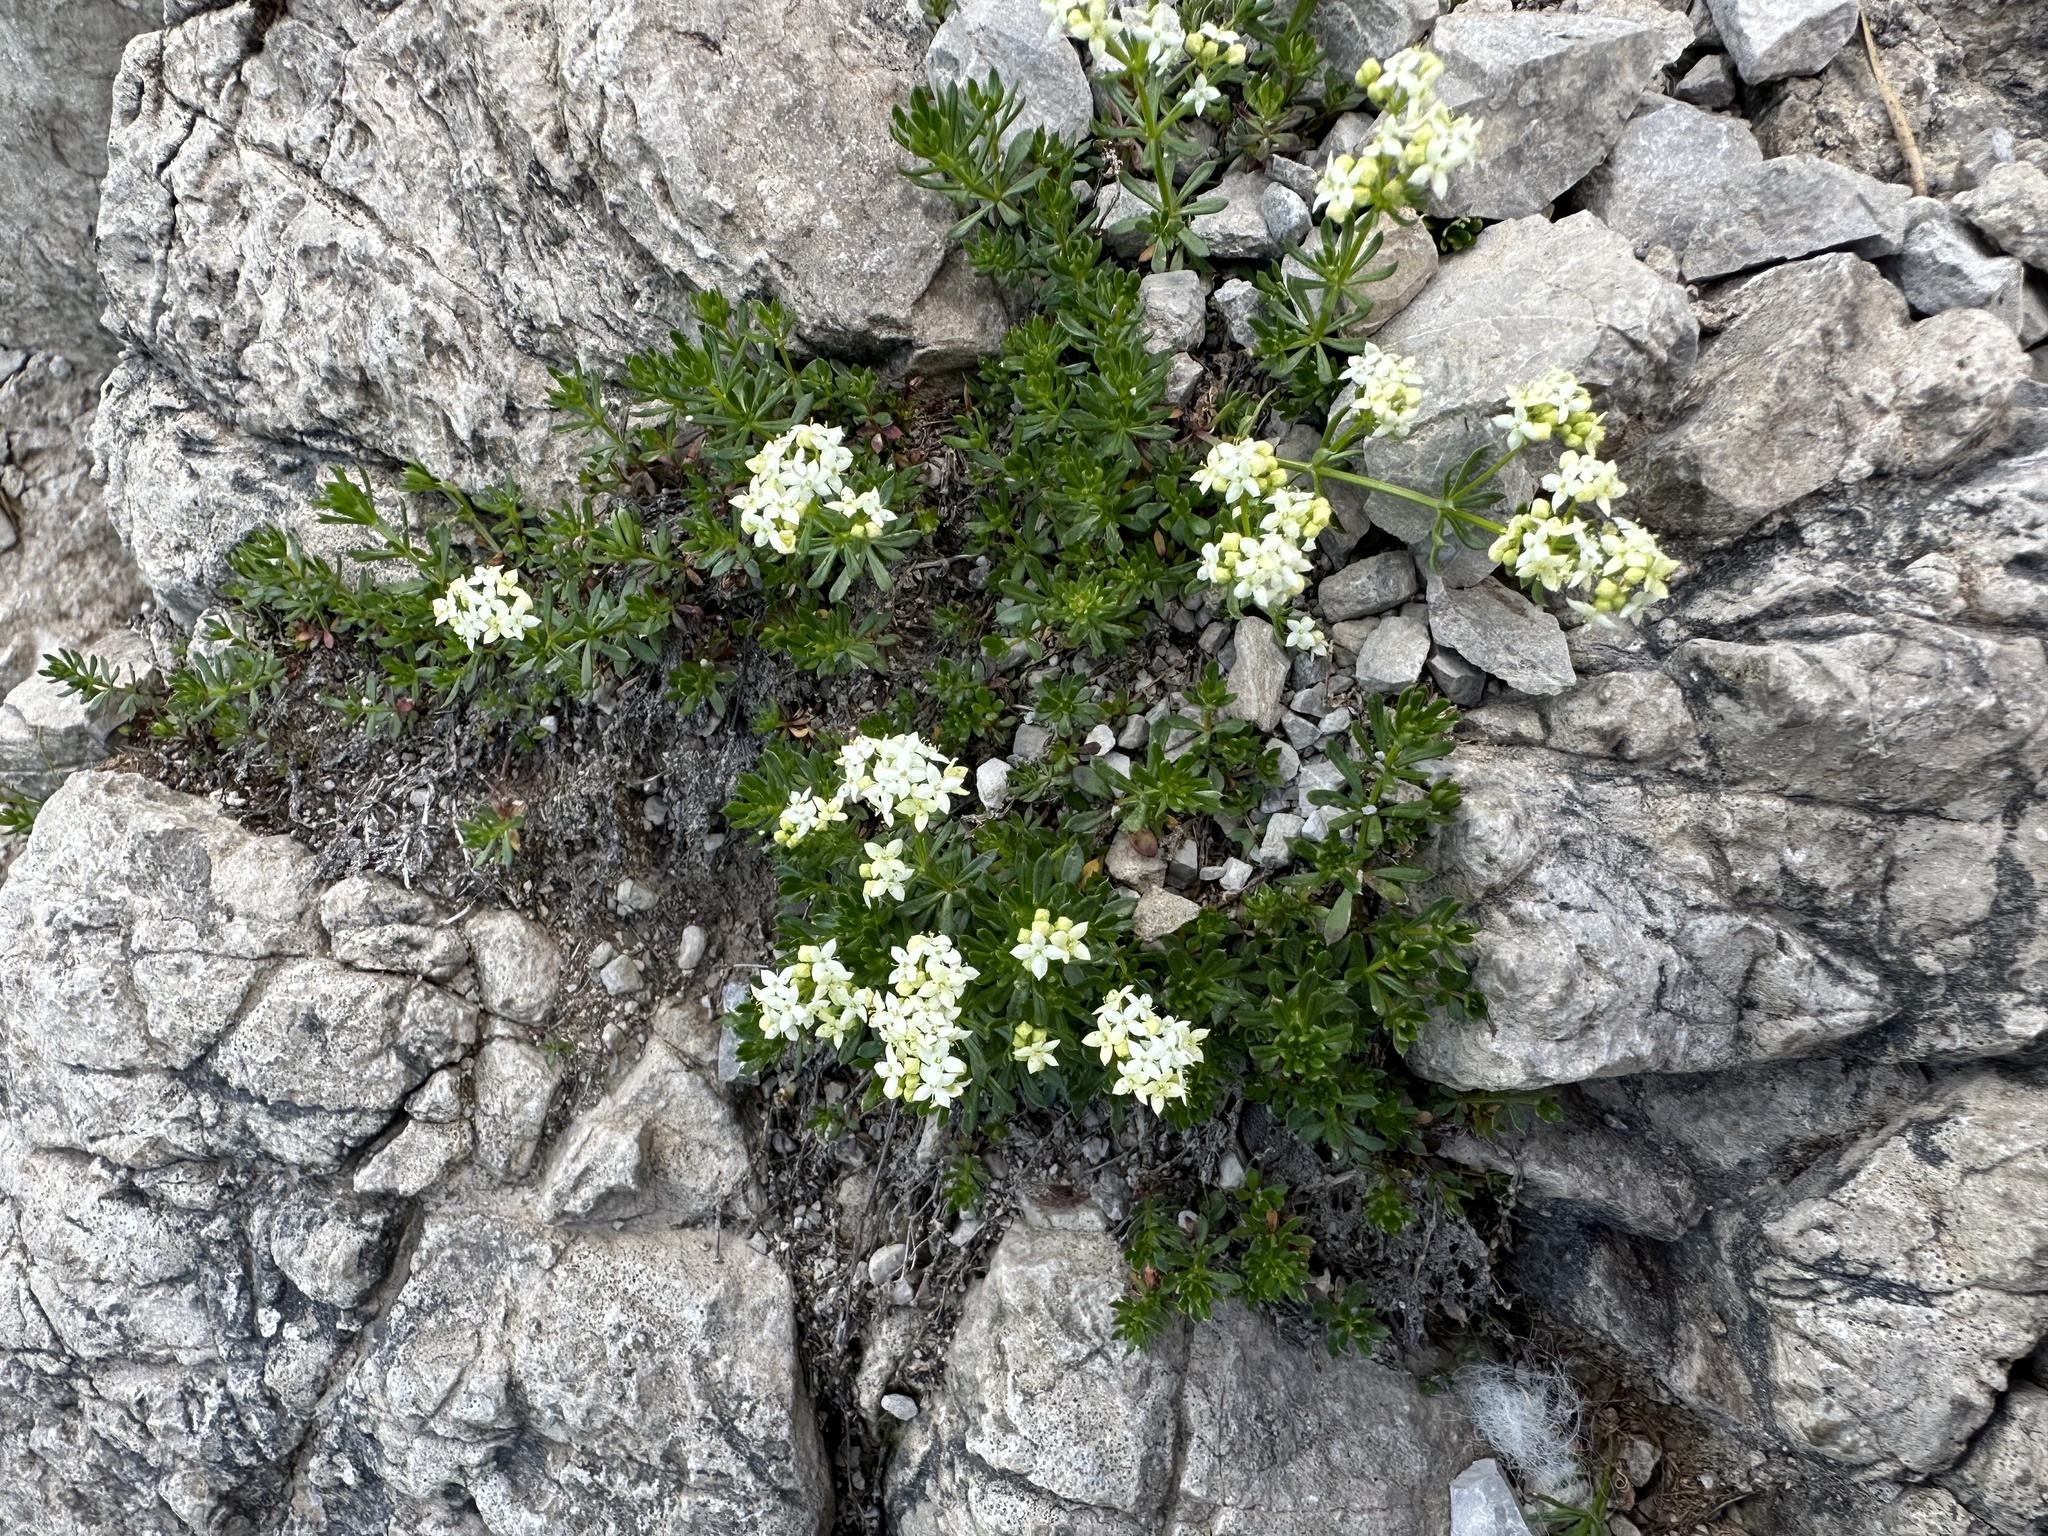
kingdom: Plantae
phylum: Tracheophyta
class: Magnoliopsida
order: Gentianales
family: Rubiaceae
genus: Galium
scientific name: Galium anisophyllon
